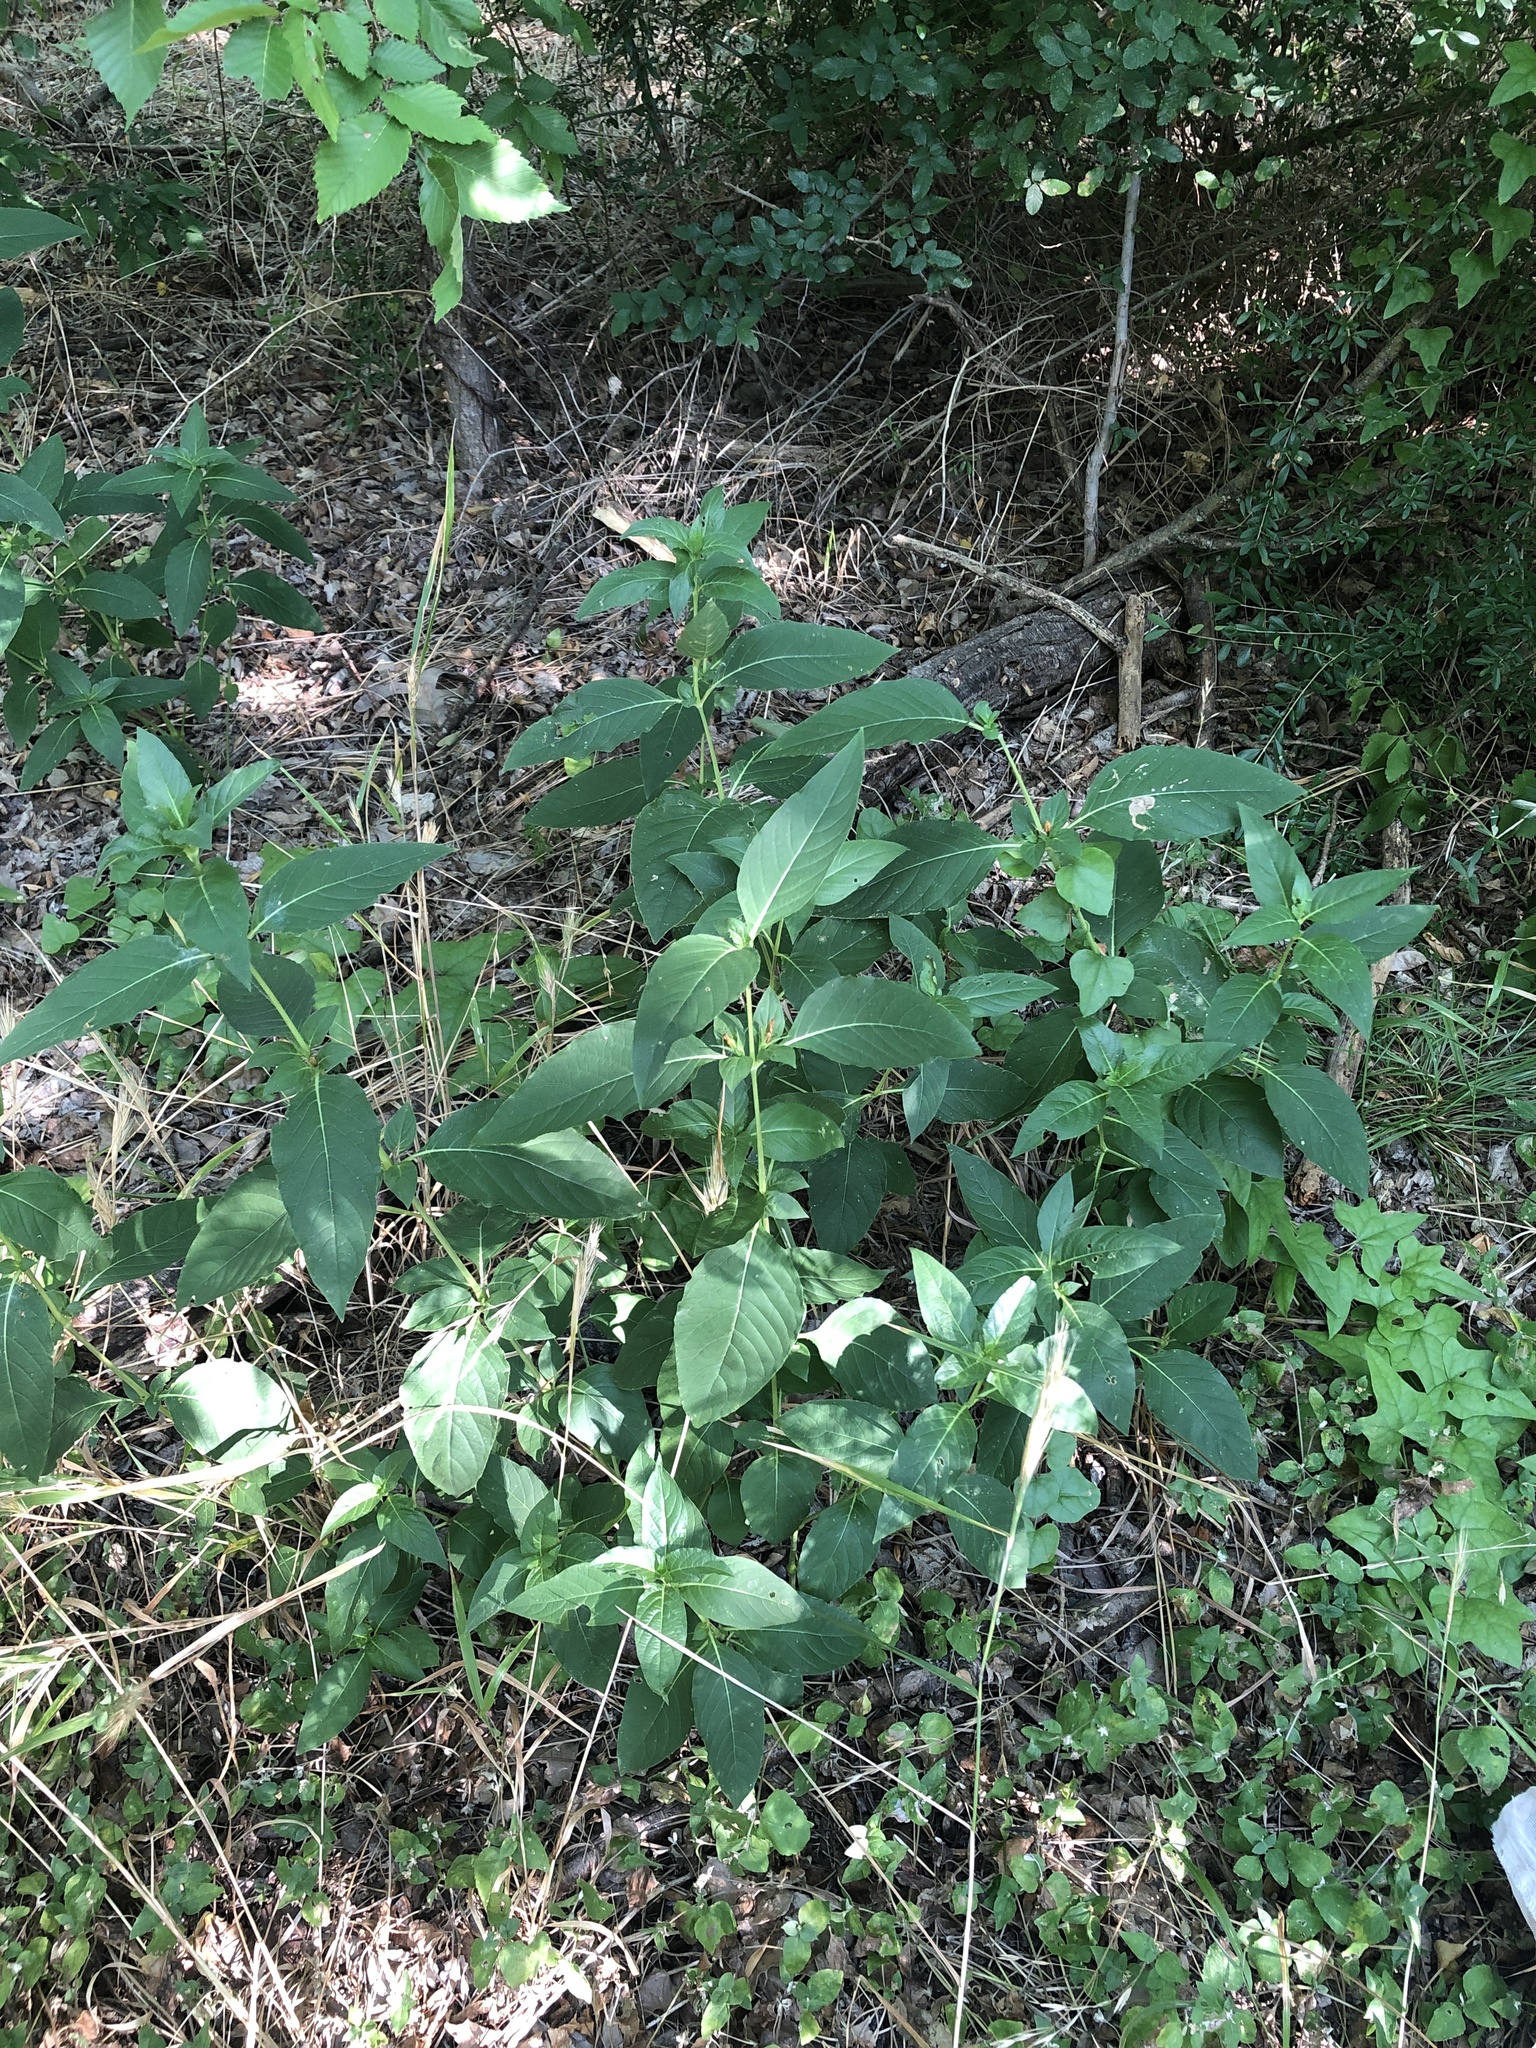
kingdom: Plantae
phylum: Tracheophyta
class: Magnoliopsida
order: Lamiales
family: Acanthaceae
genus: Ruellia
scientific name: Ruellia strepens
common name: Limestone wild petunia
